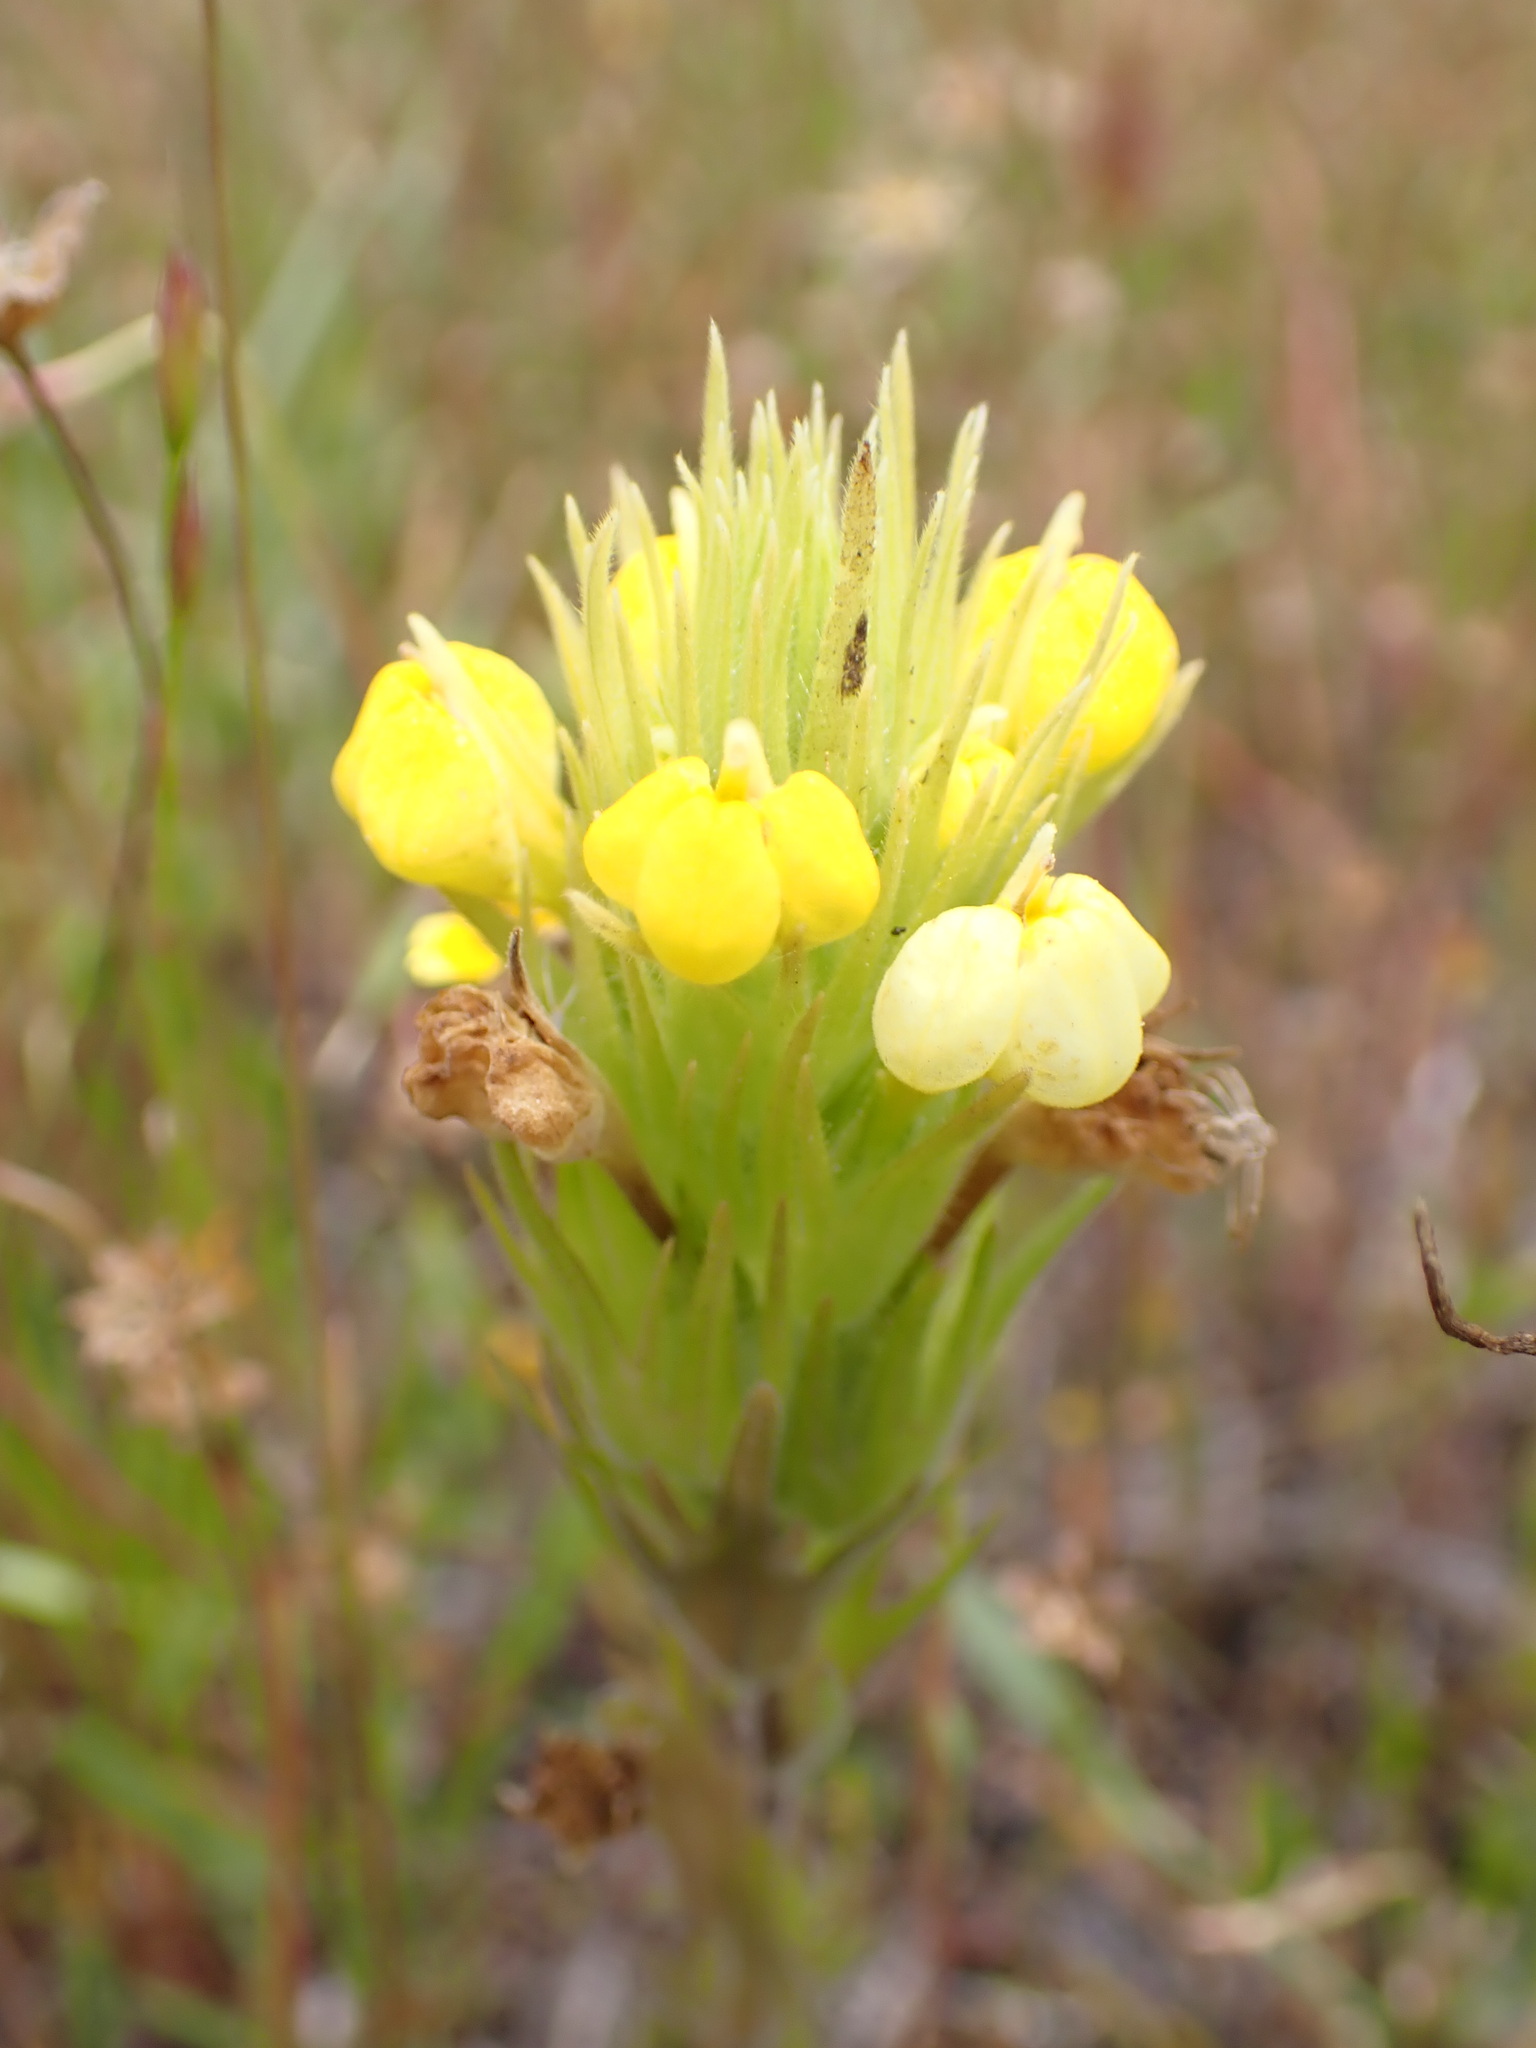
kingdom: Plantae
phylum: Tracheophyta
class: Magnoliopsida
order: Lamiales
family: Orobanchaceae
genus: Castilleja
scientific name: Castilleja rubicundula
